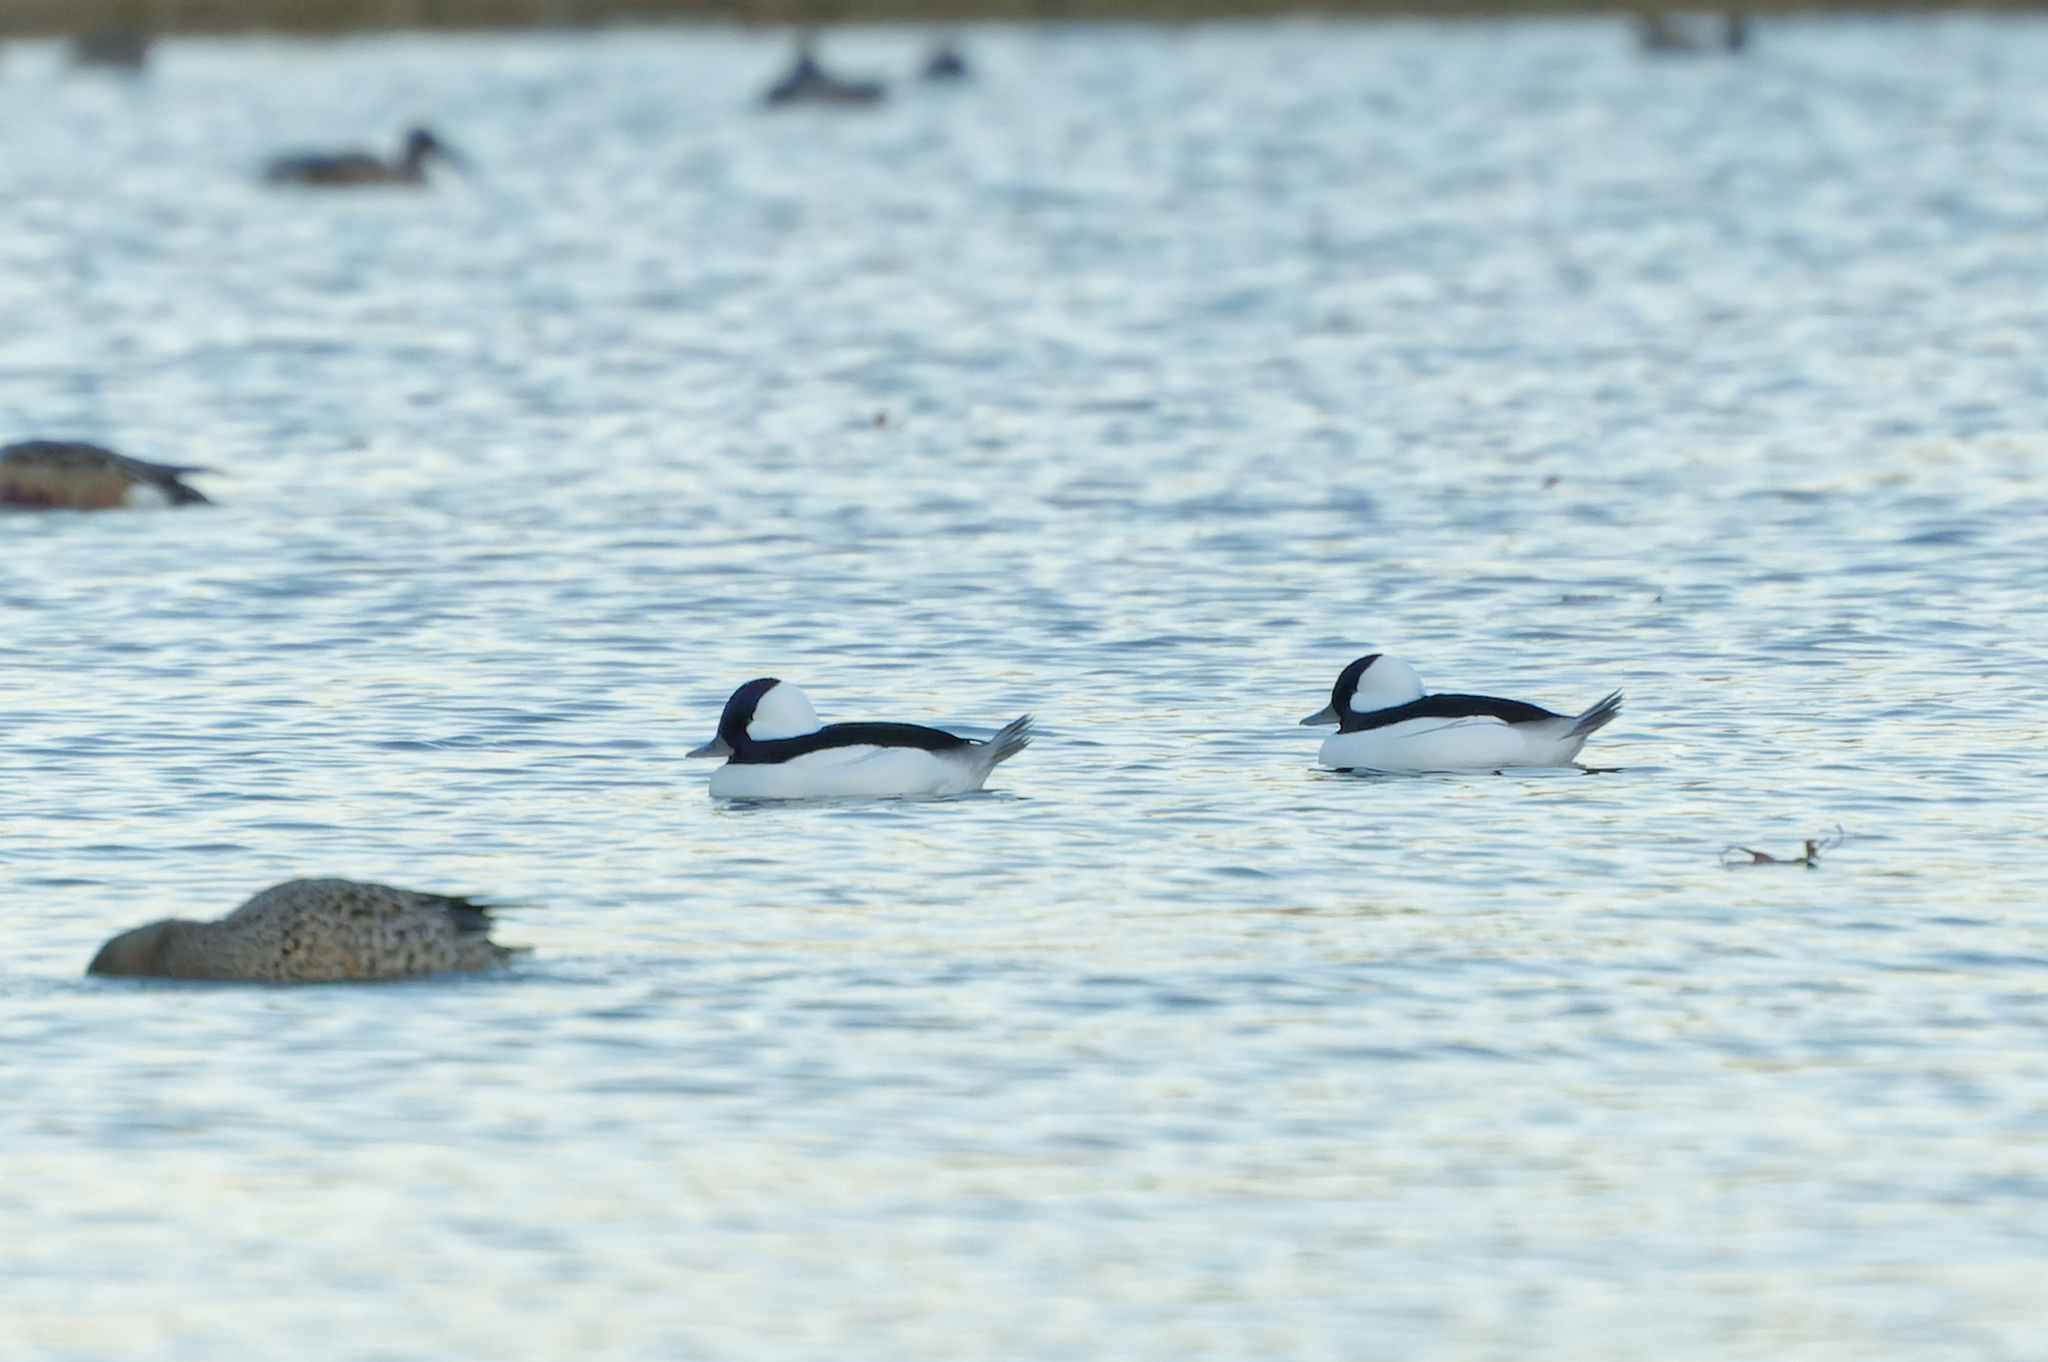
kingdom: Animalia
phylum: Chordata
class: Aves
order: Anseriformes
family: Anatidae
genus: Bucephala
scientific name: Bucephala albeola
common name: Bufflehead
